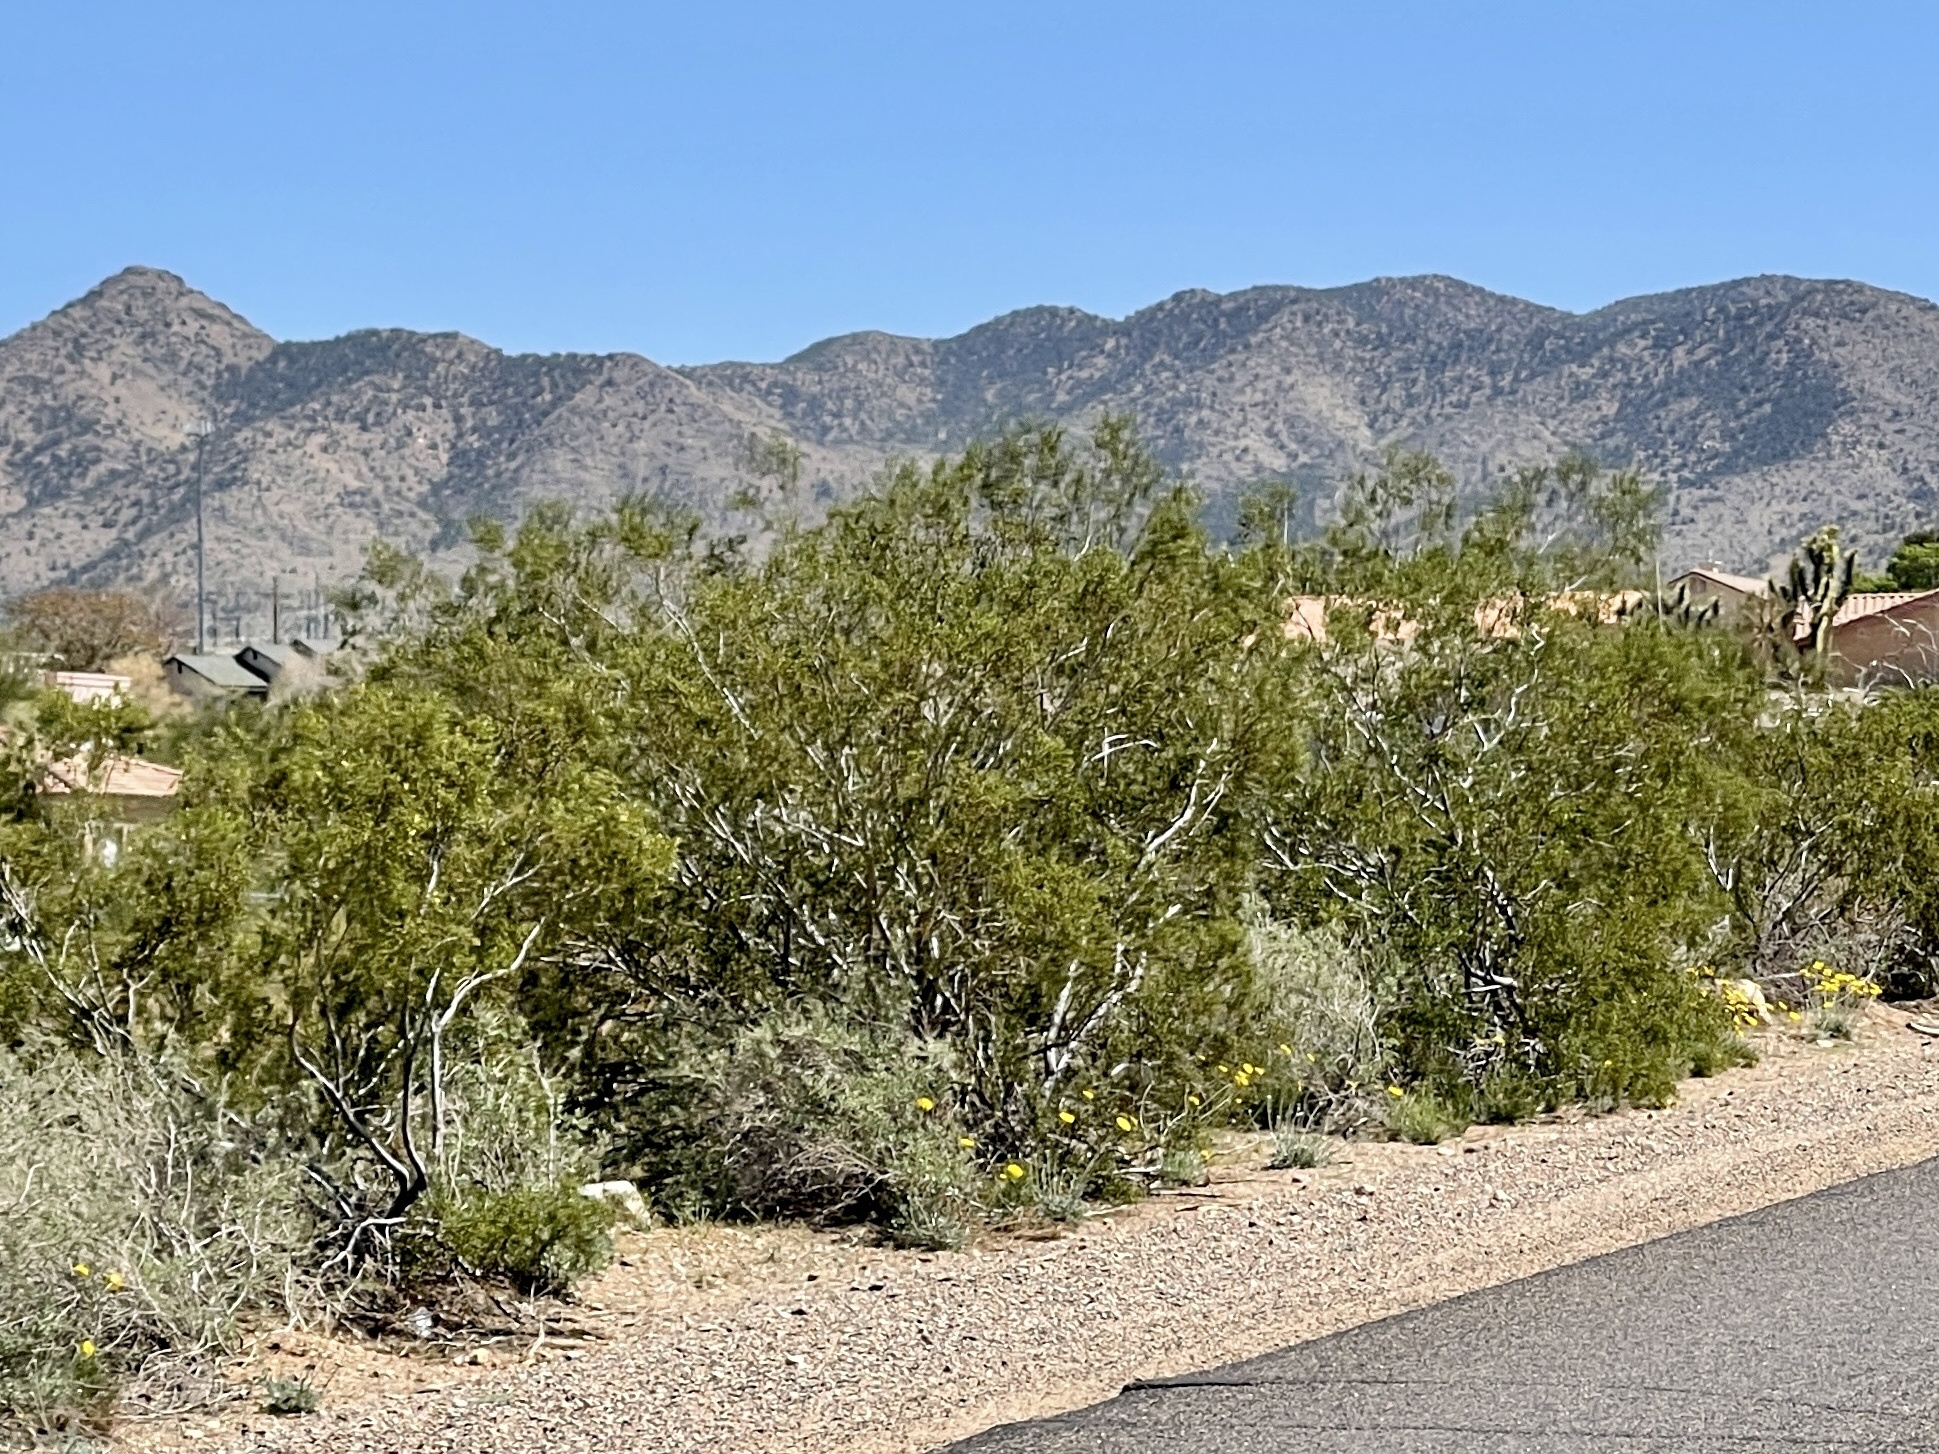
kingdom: Plantae
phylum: Tracheophyta
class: Magnoliopsida
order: Zygophyllales
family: Zygophyllaceae
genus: Larrea
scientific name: Larrea tridentata
